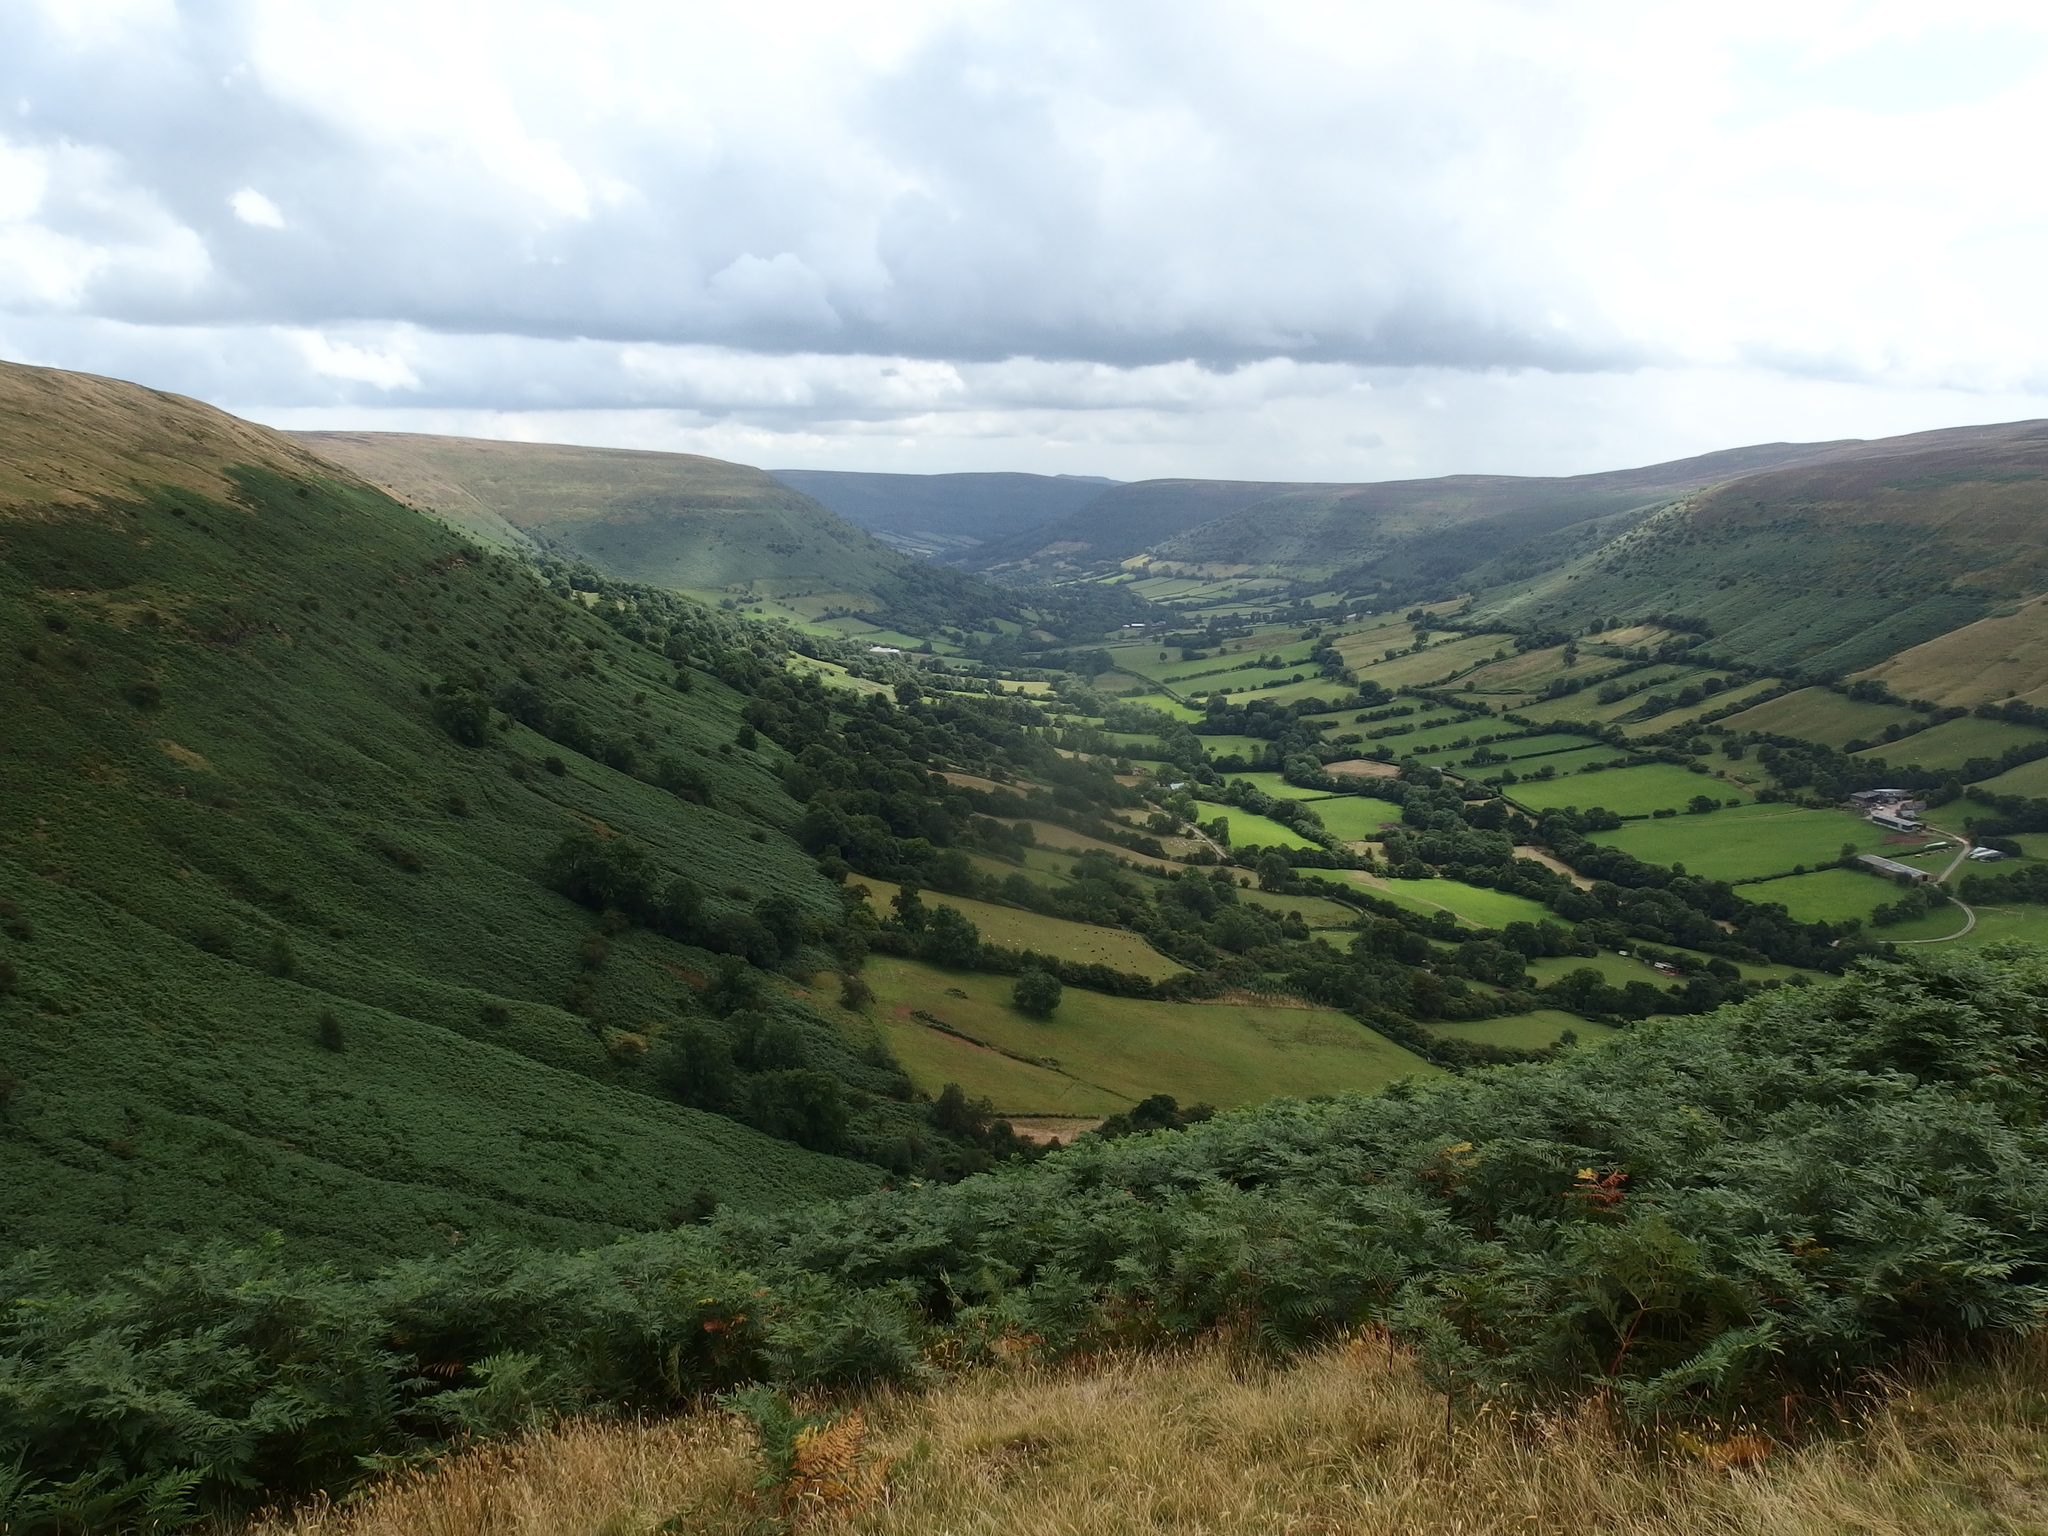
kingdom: Plantae
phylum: Tracheophyta
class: Polypodiopsida
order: Polypodiales
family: Dennstaedtiaceae
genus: Pteridium
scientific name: Pteridium aquilinum
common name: Bracken
